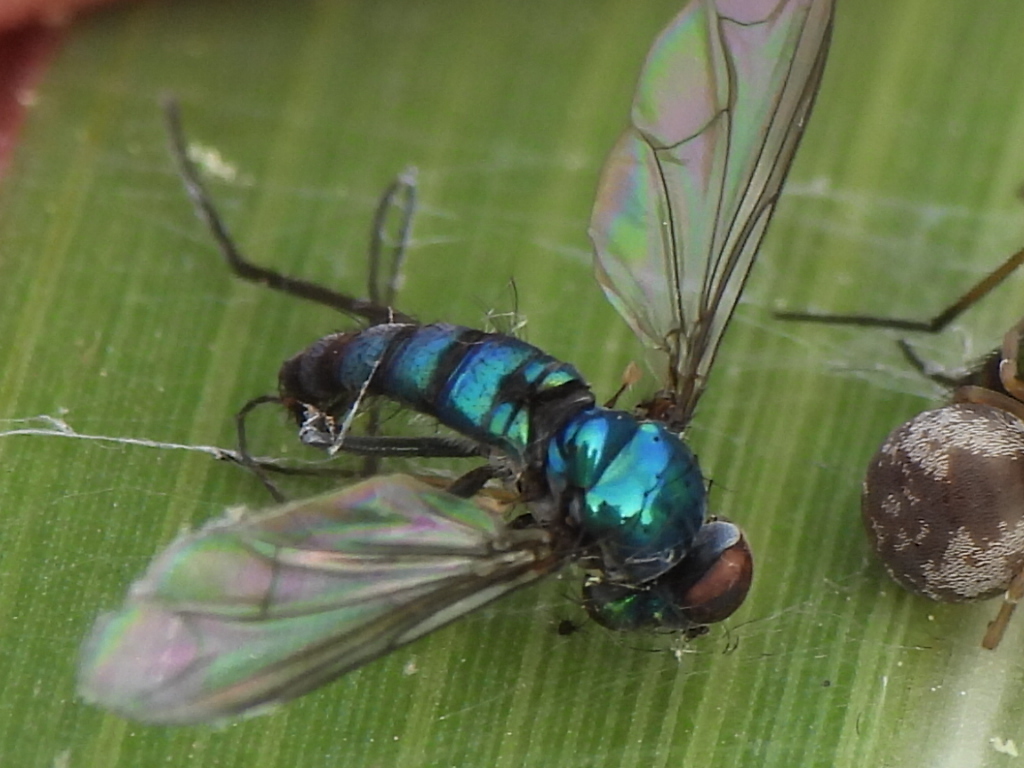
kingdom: Animalia
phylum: Arthropoda
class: Insecta
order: Diptera
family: Dolichopodidae
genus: Condylostylus
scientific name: Condylostylus longicornis
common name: Long-legged fly
